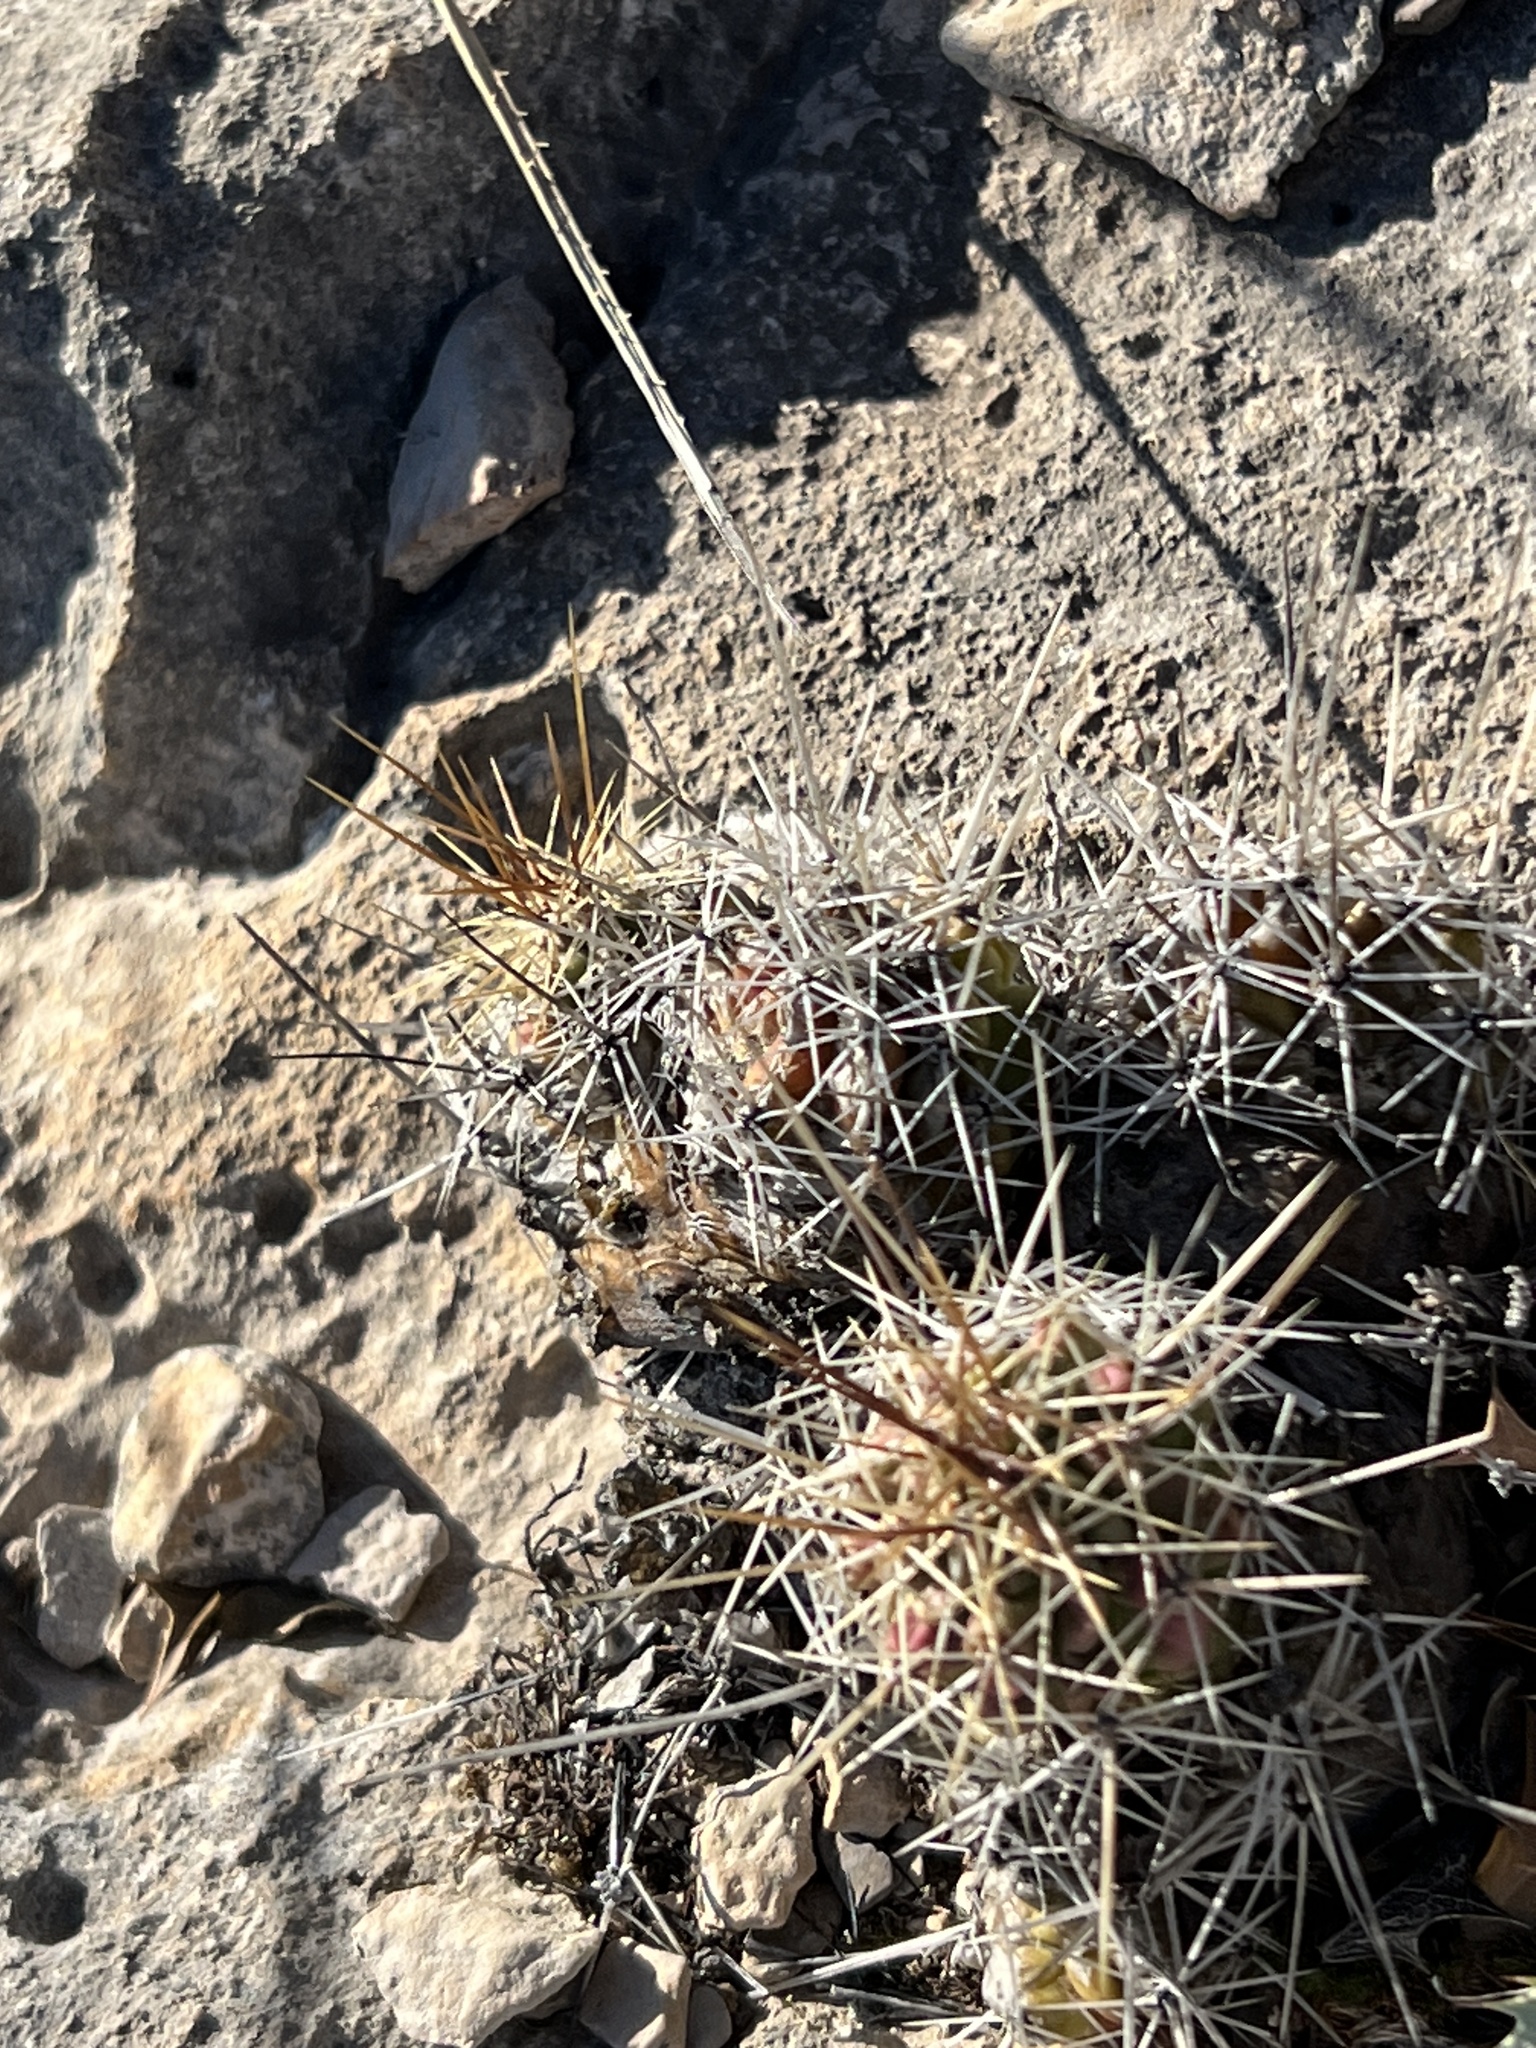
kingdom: Plantae
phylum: Tracheophyta
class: Magnoliopsida
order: Caryophyllales
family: Cactaceae
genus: Echinocereus
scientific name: Echinocereus enneacanthus
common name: Pitaya
